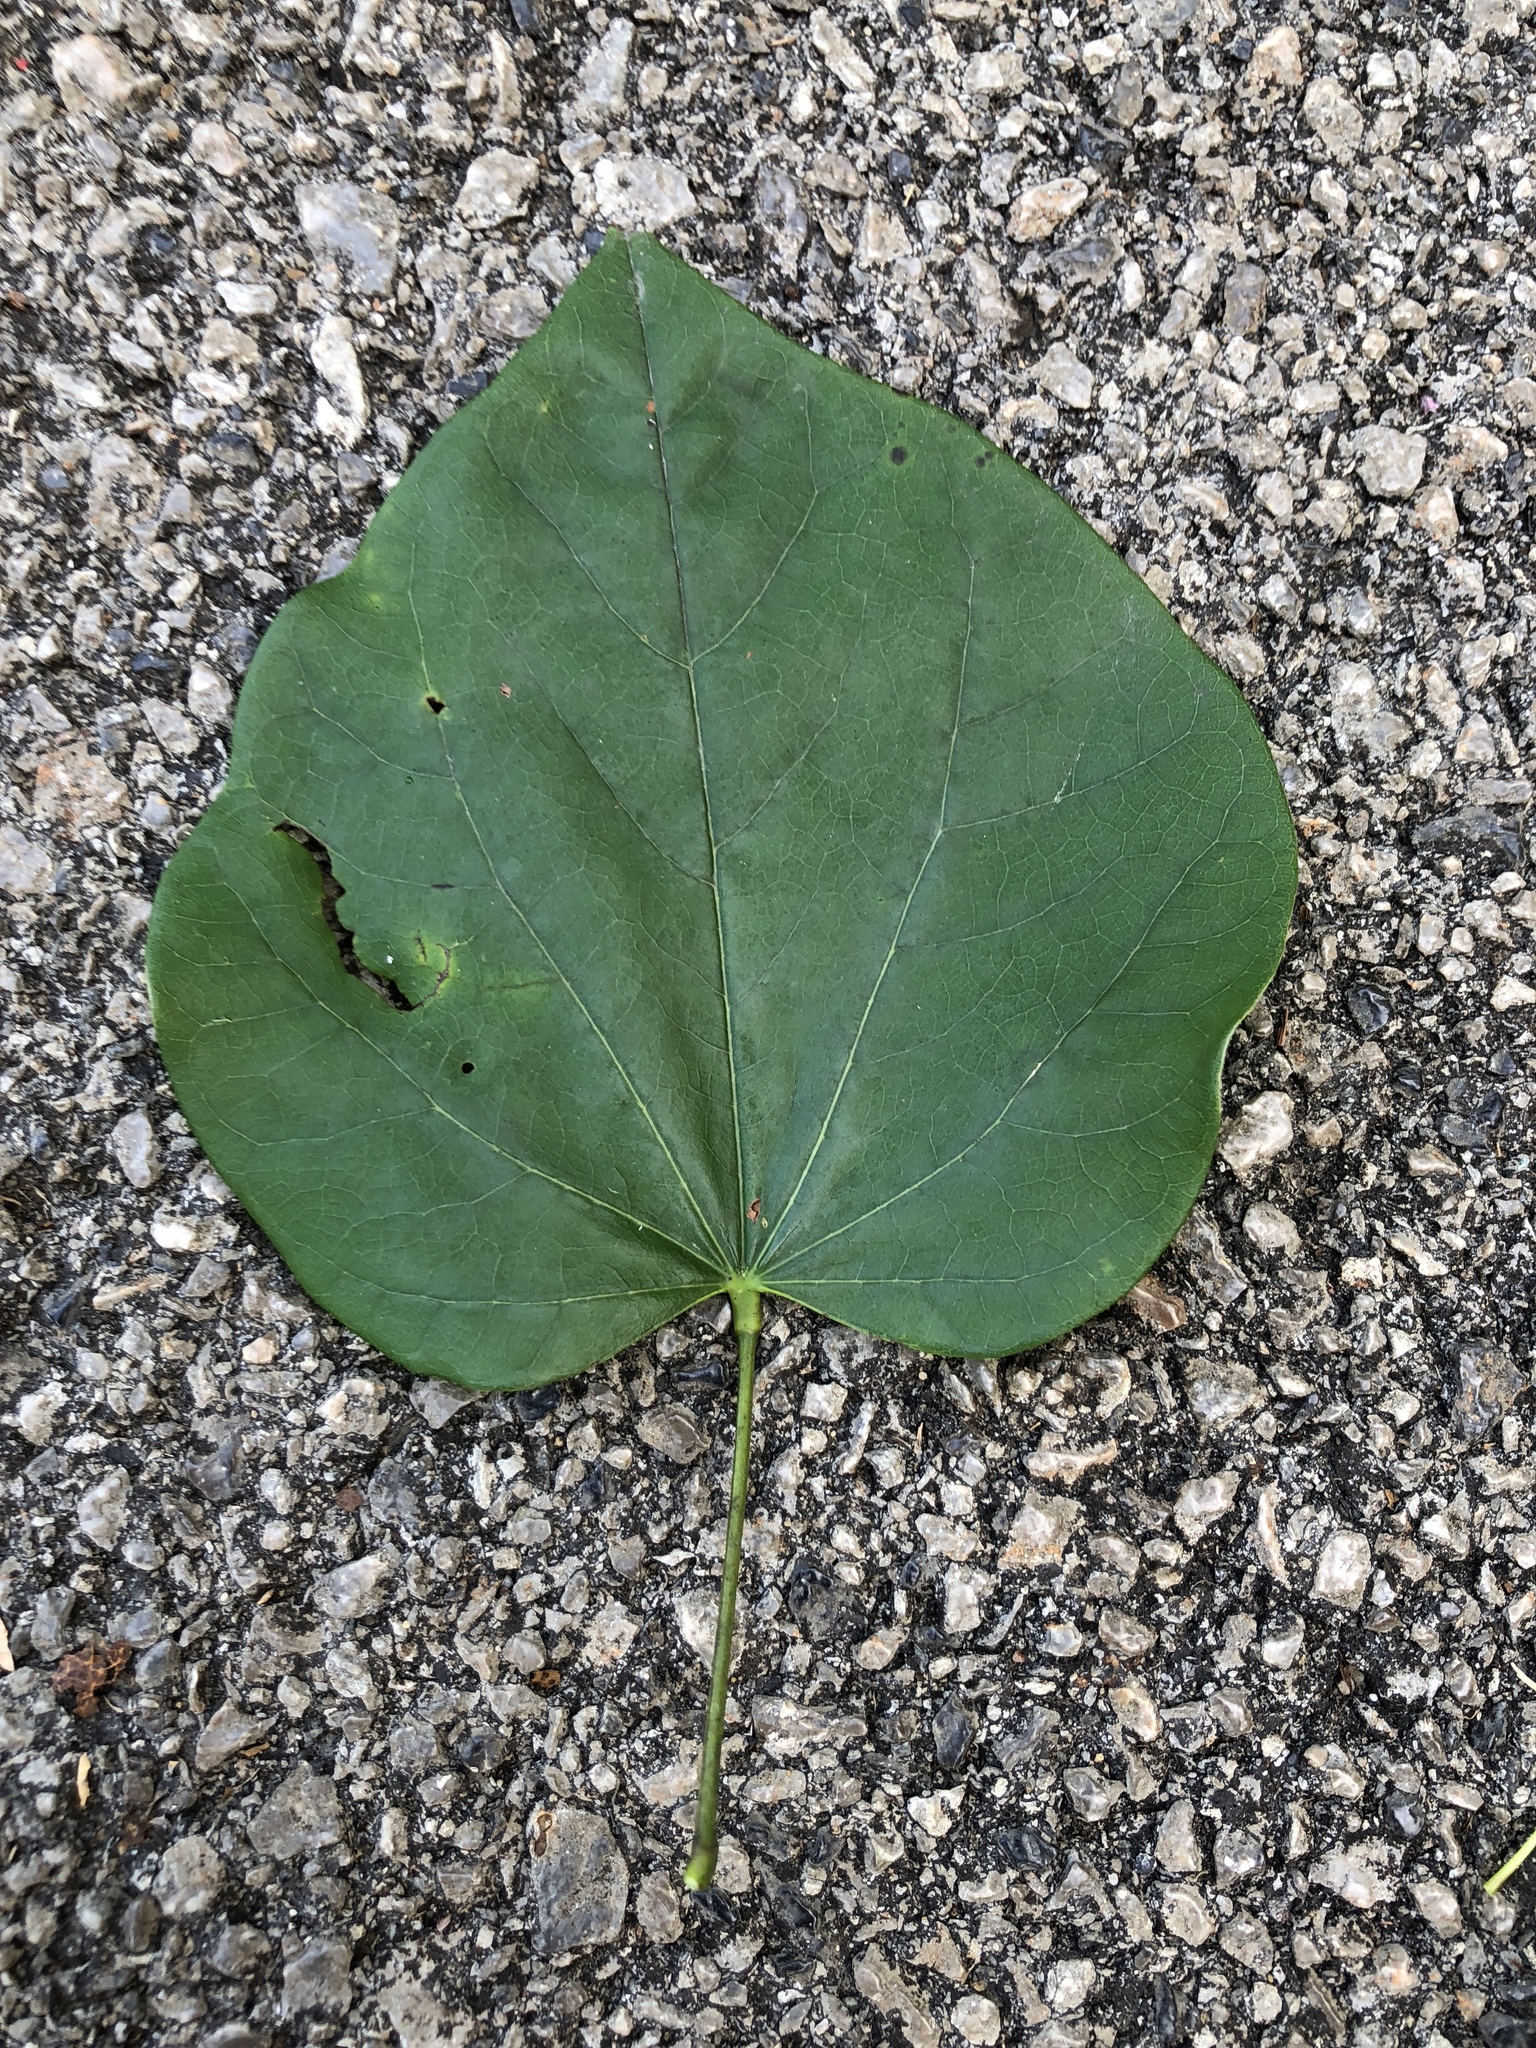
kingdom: Plantae
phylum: Tracheophyta
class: Magnoliopsida
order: Fabales
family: Fabaceae
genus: Cercis
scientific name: Cercis canadensis
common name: Eastern redbud
